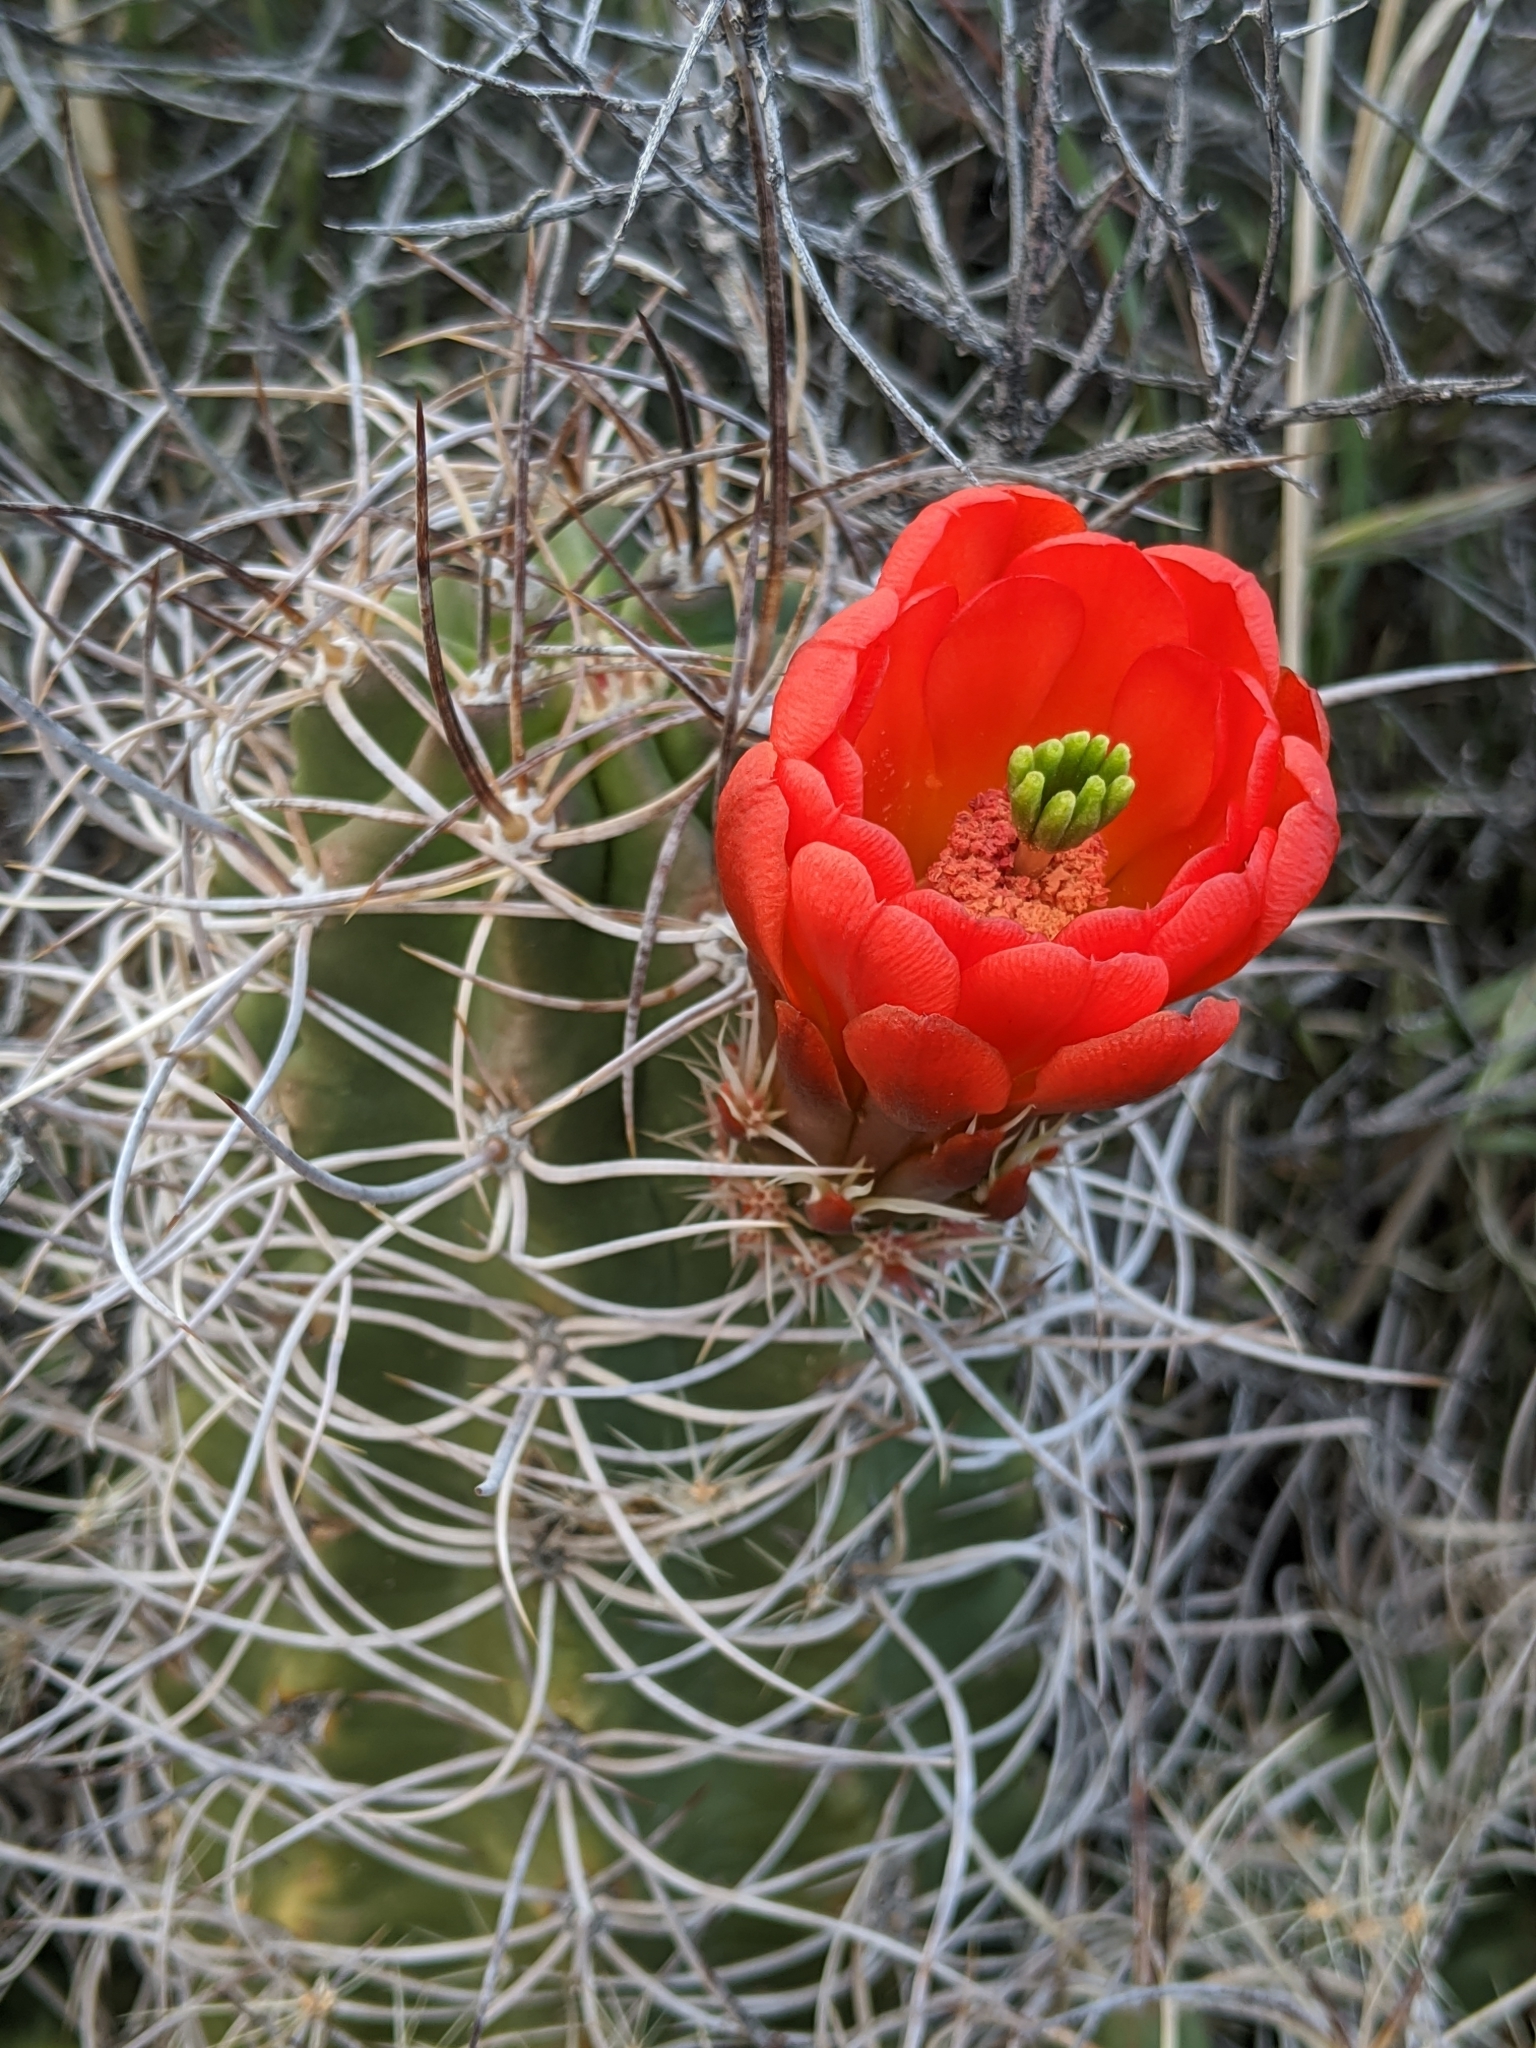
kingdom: Plantae
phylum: Tracheophyta
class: Magnoliopsida
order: Caryophyllales
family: Cactaceae
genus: Echinocereus
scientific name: Echinocereus triglochidiatus
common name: Claretcup hedgehog
